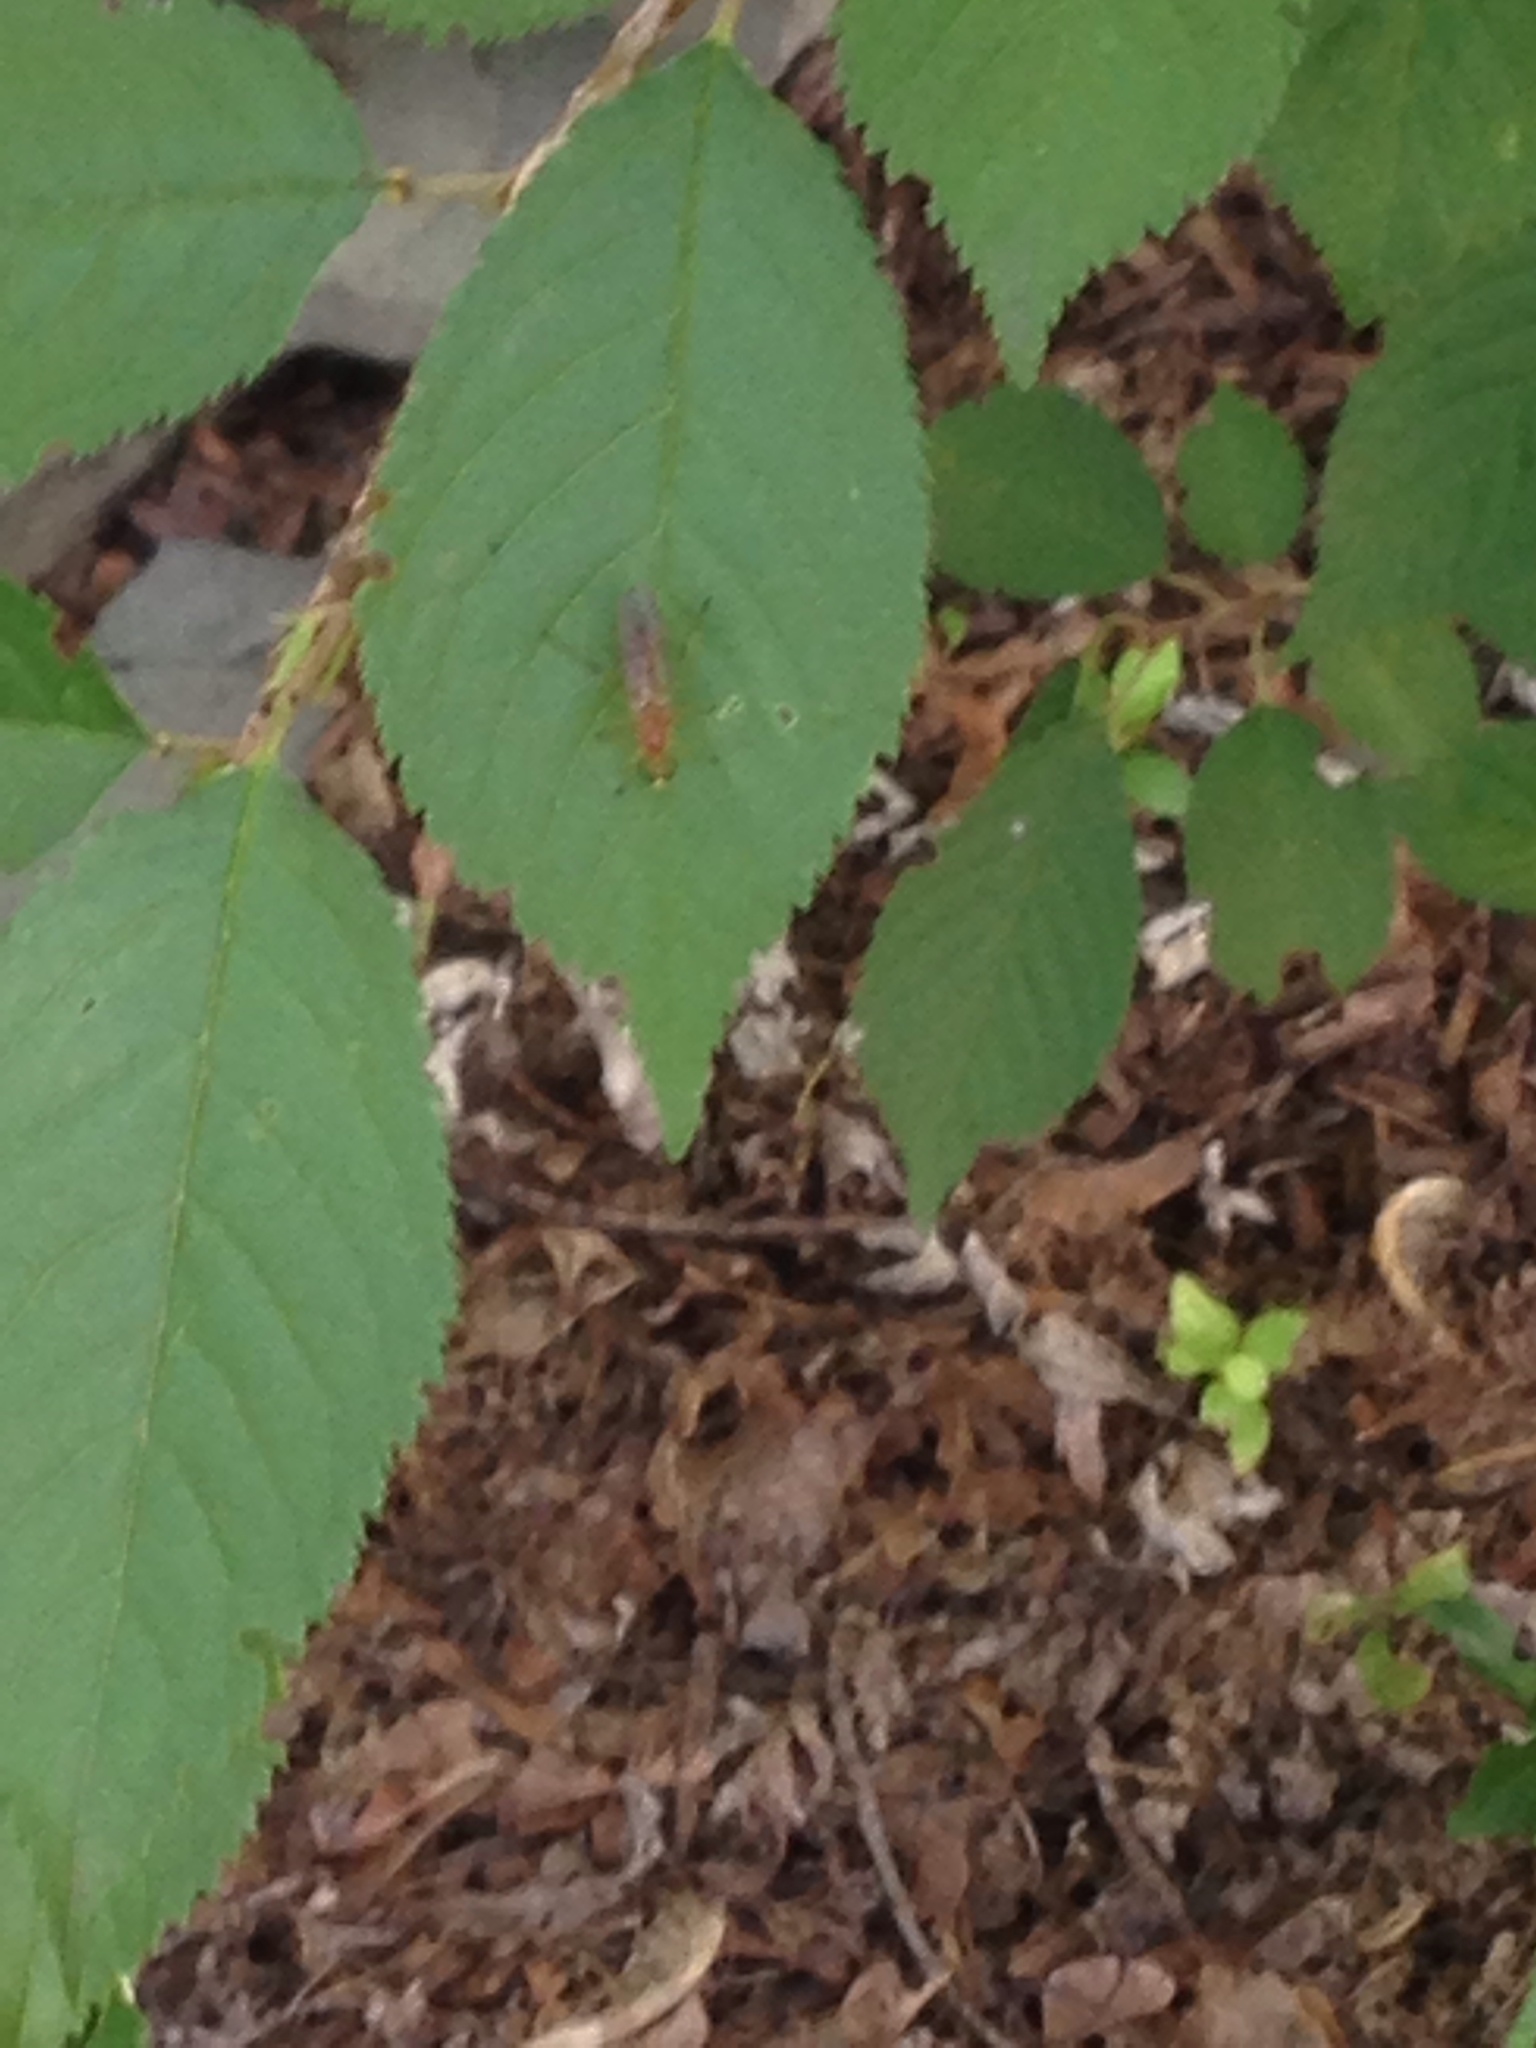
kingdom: Animalia
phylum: Arthropoda
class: Insecta
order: Diptera
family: Stratiomyidae
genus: Ptecticus
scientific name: Ptecticus trivittatus
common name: Compost fly
